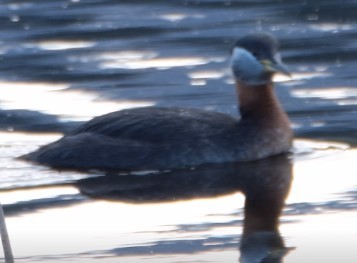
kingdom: Animalia
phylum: Chordata
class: Aves
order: Podicipediformes
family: Podicipedidae
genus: Podiceps
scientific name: Podiceps grisegena
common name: Red-necked grebe
